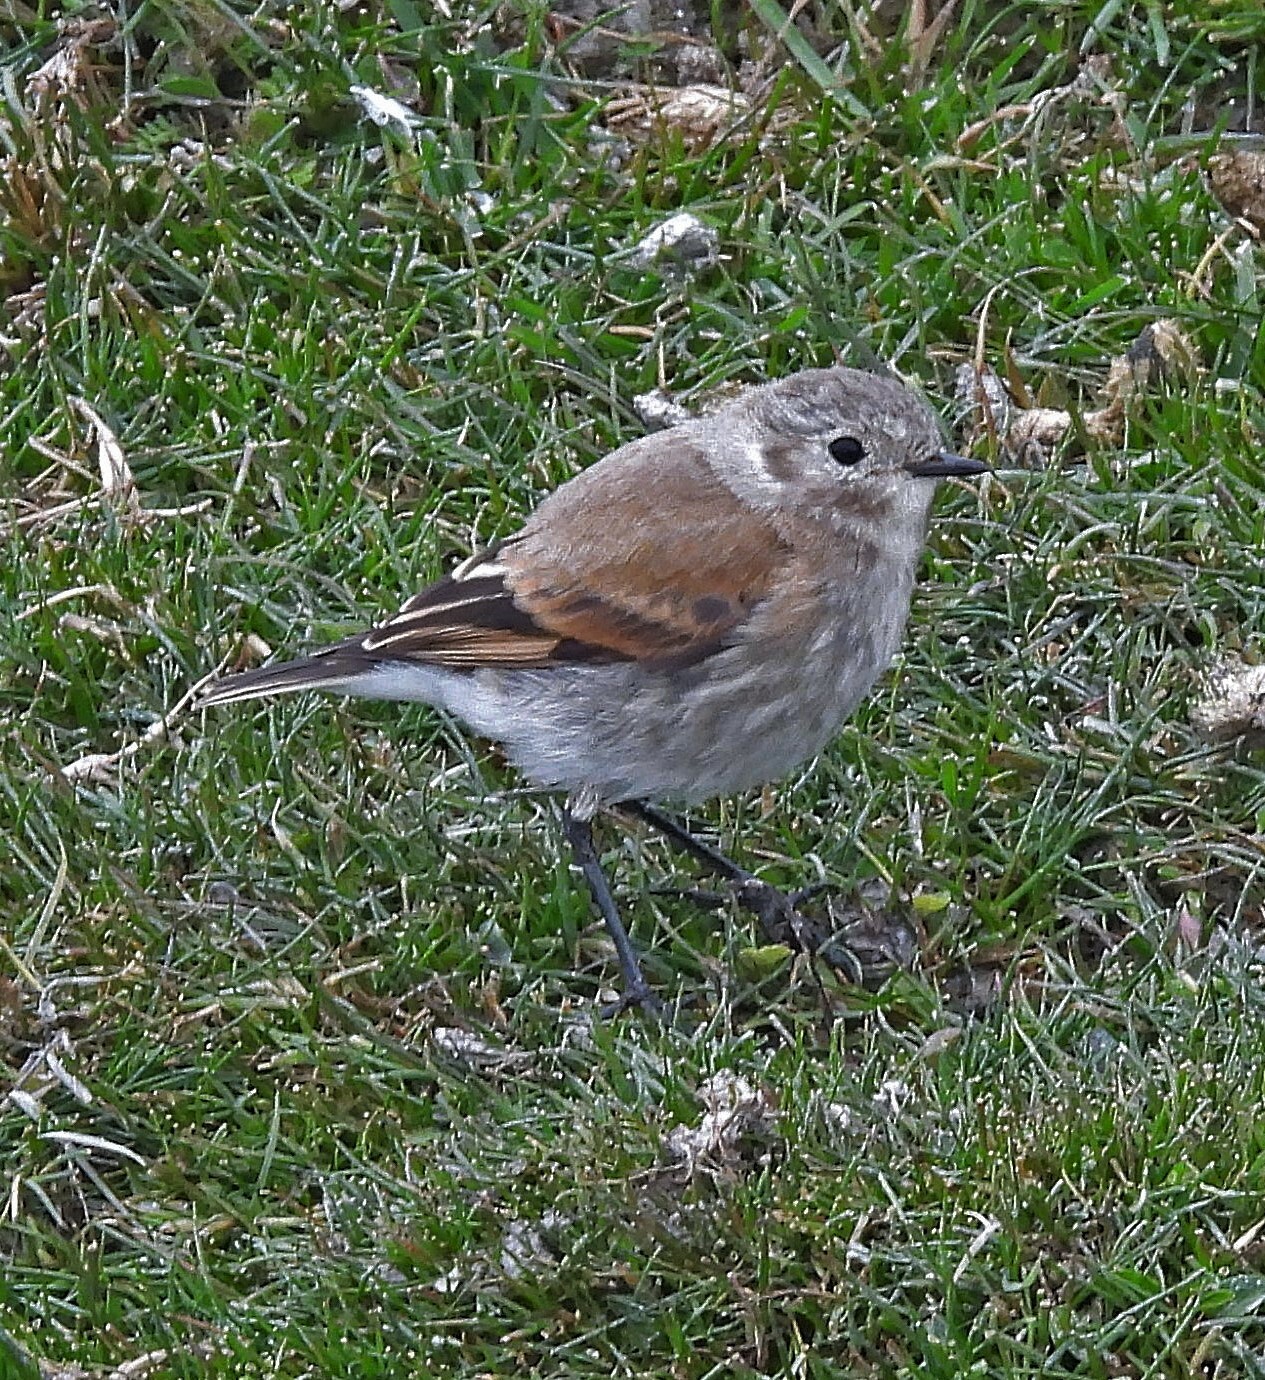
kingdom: Animalia
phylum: Chordata
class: Aves
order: Passeriformes
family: Tyrannidae
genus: Lessonia
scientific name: Lessonia rufa
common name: Austral negrito
